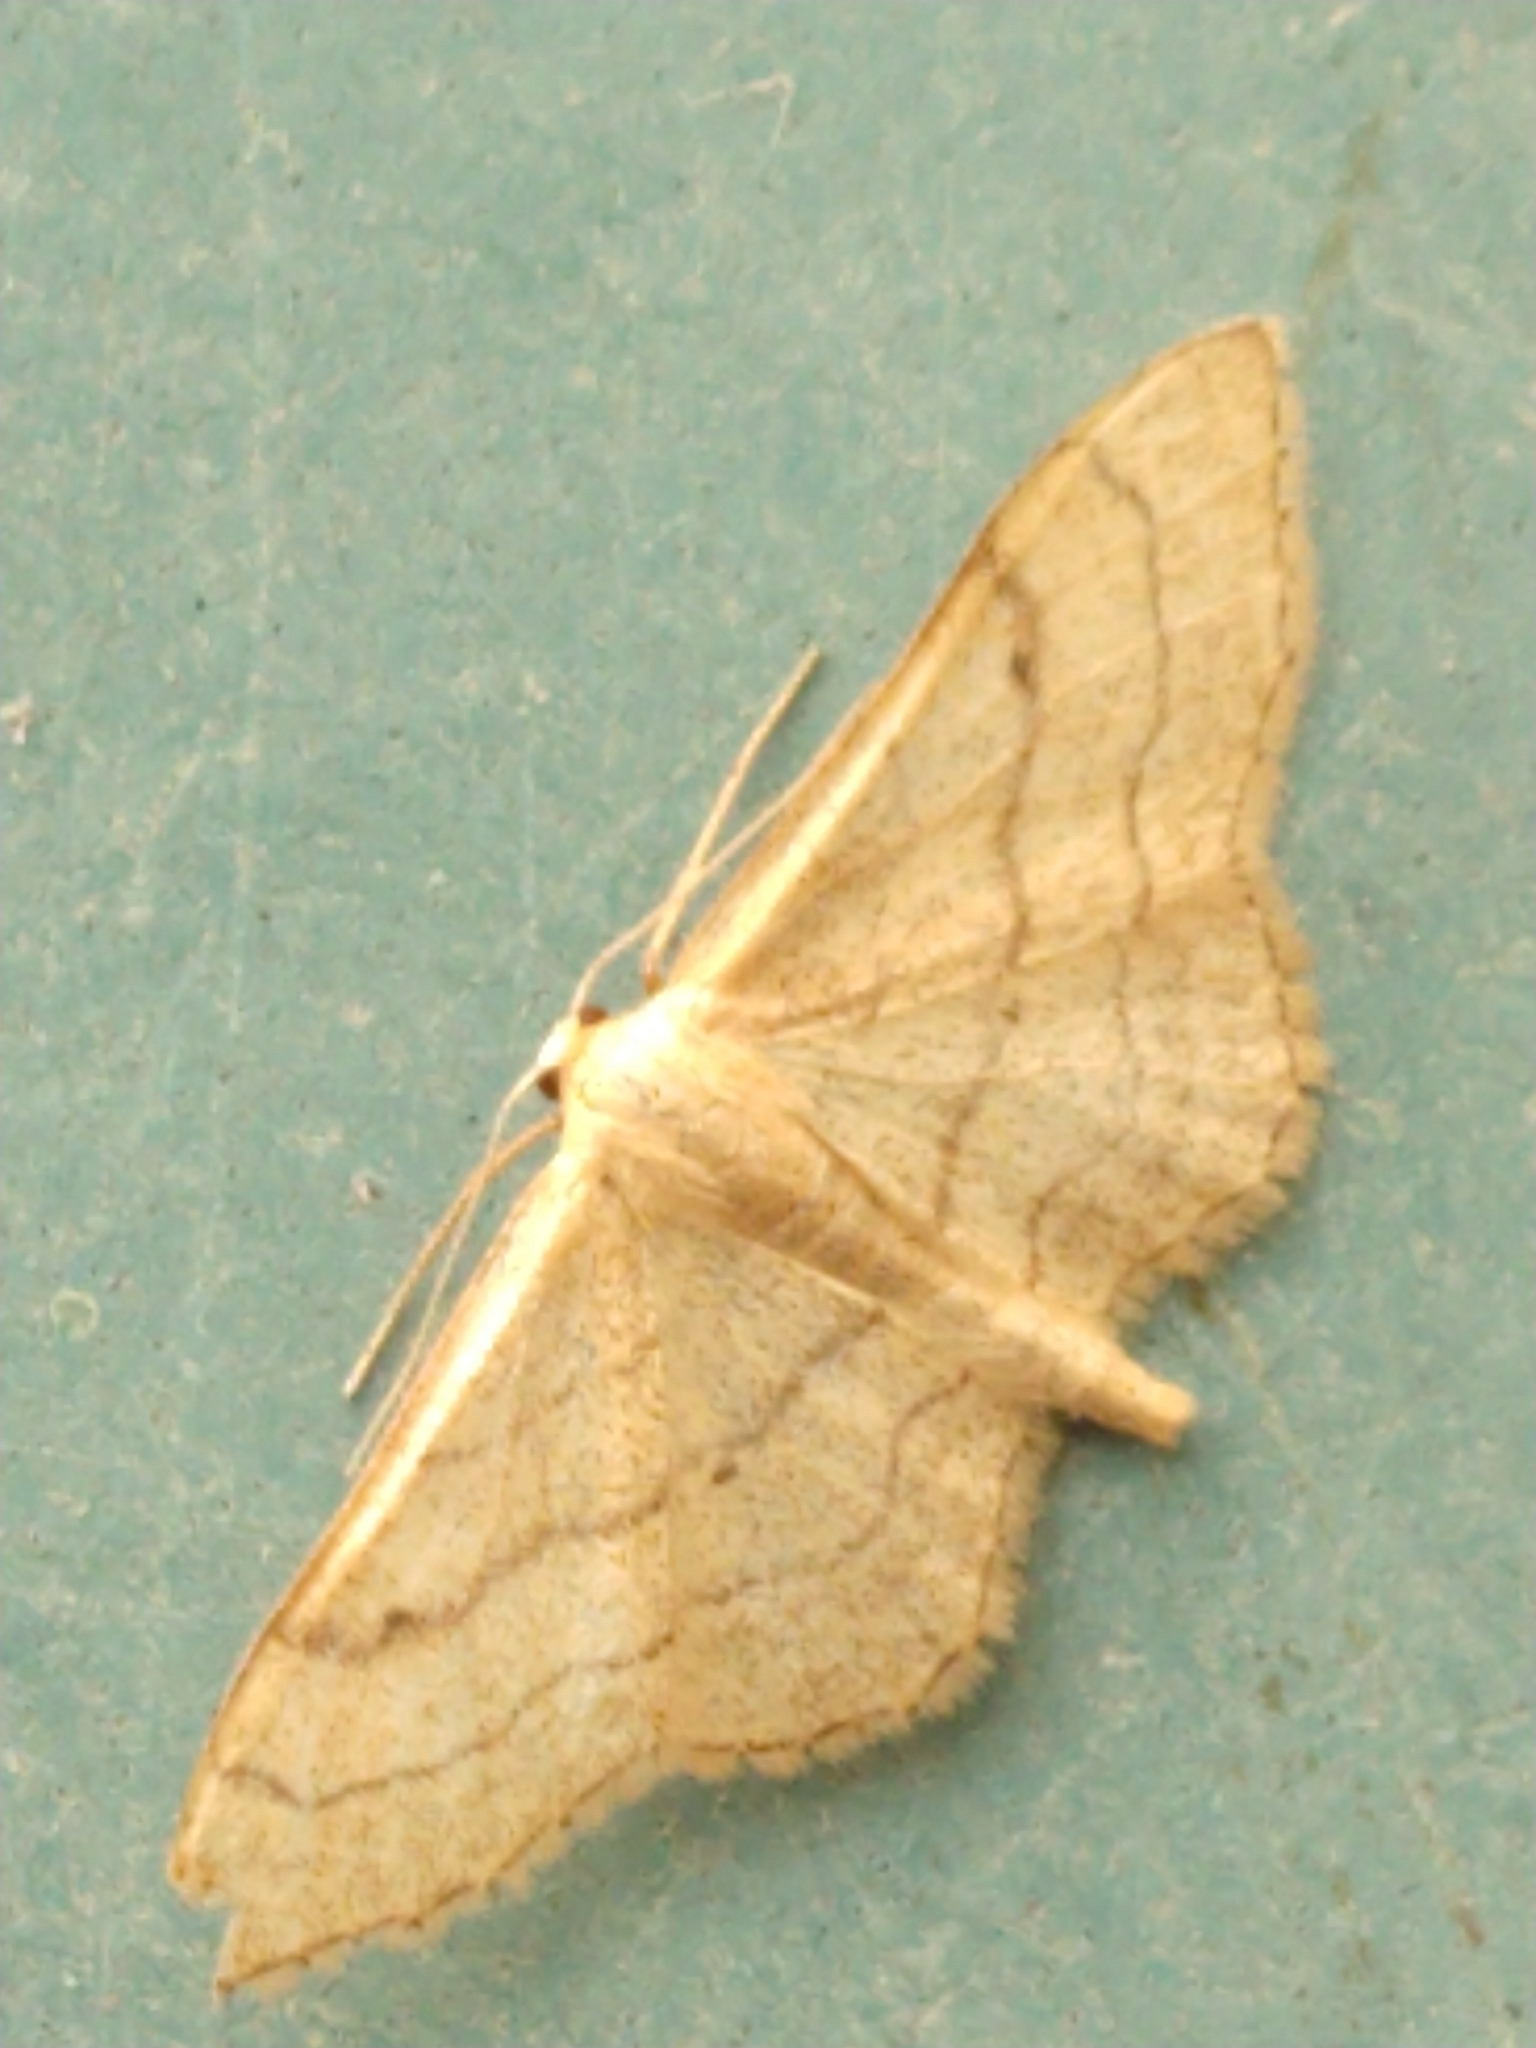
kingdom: Animalia
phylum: Arthropoda
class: Insecta
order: Lepidoptera
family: Geometridae
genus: Idaea
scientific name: Idaea aversata
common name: Riband wave
